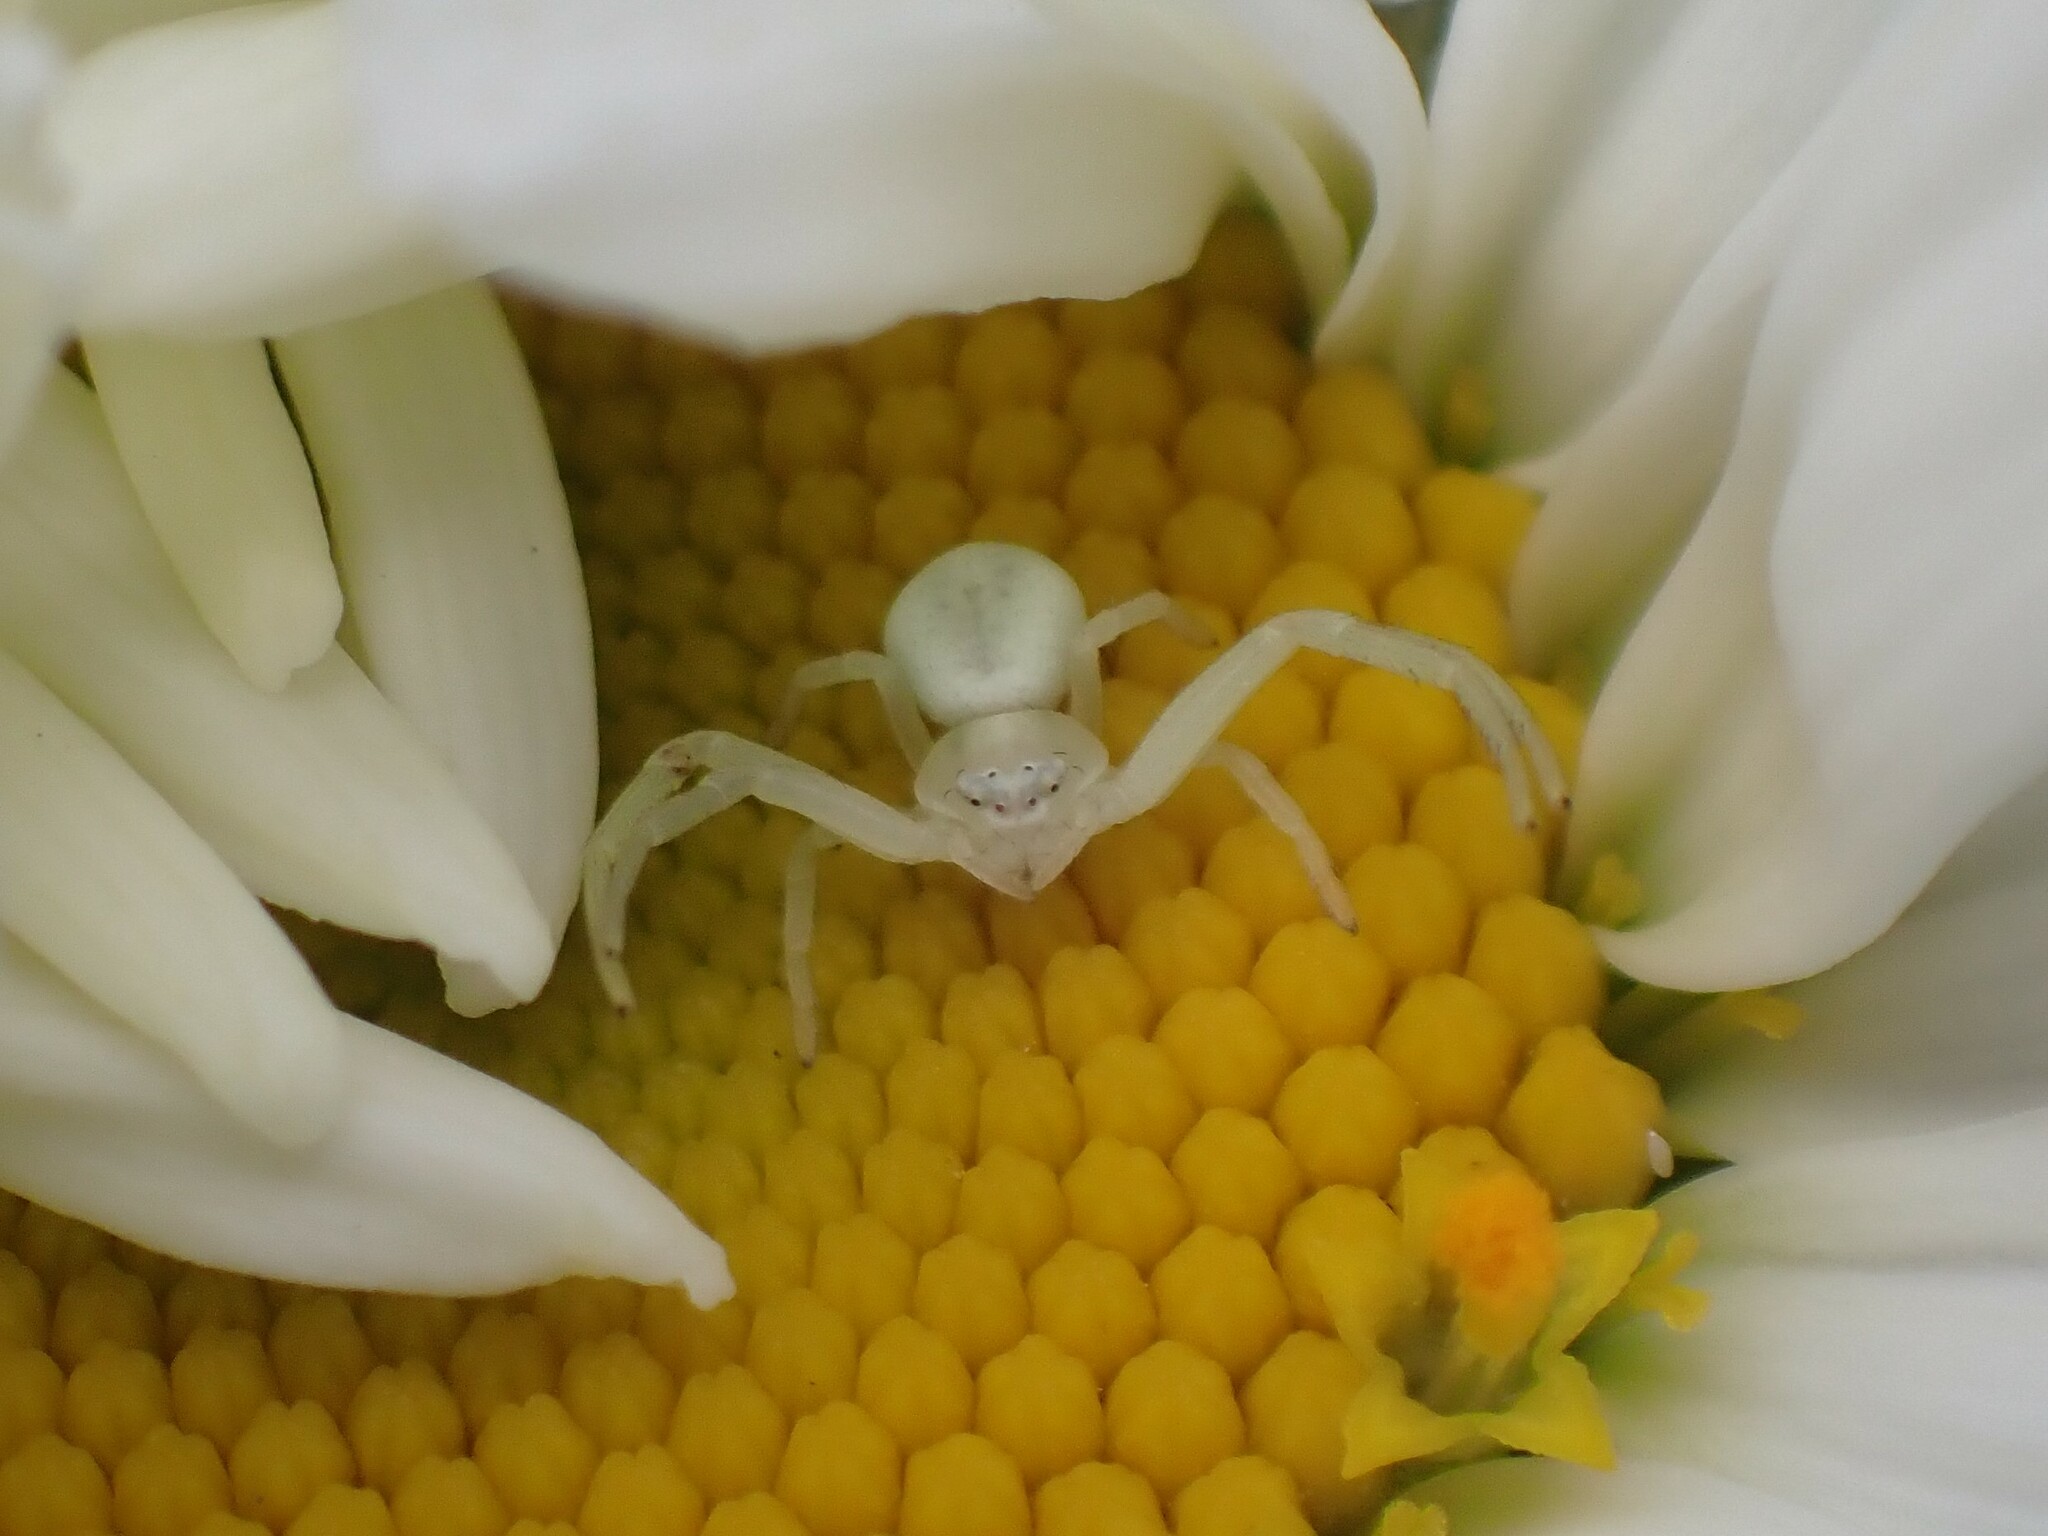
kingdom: Animalia
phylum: Arthropoda
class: Arachnida
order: Araneae
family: Thomisidae
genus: Misumena
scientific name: Misumena vatia
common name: Goldenrod crab spider
